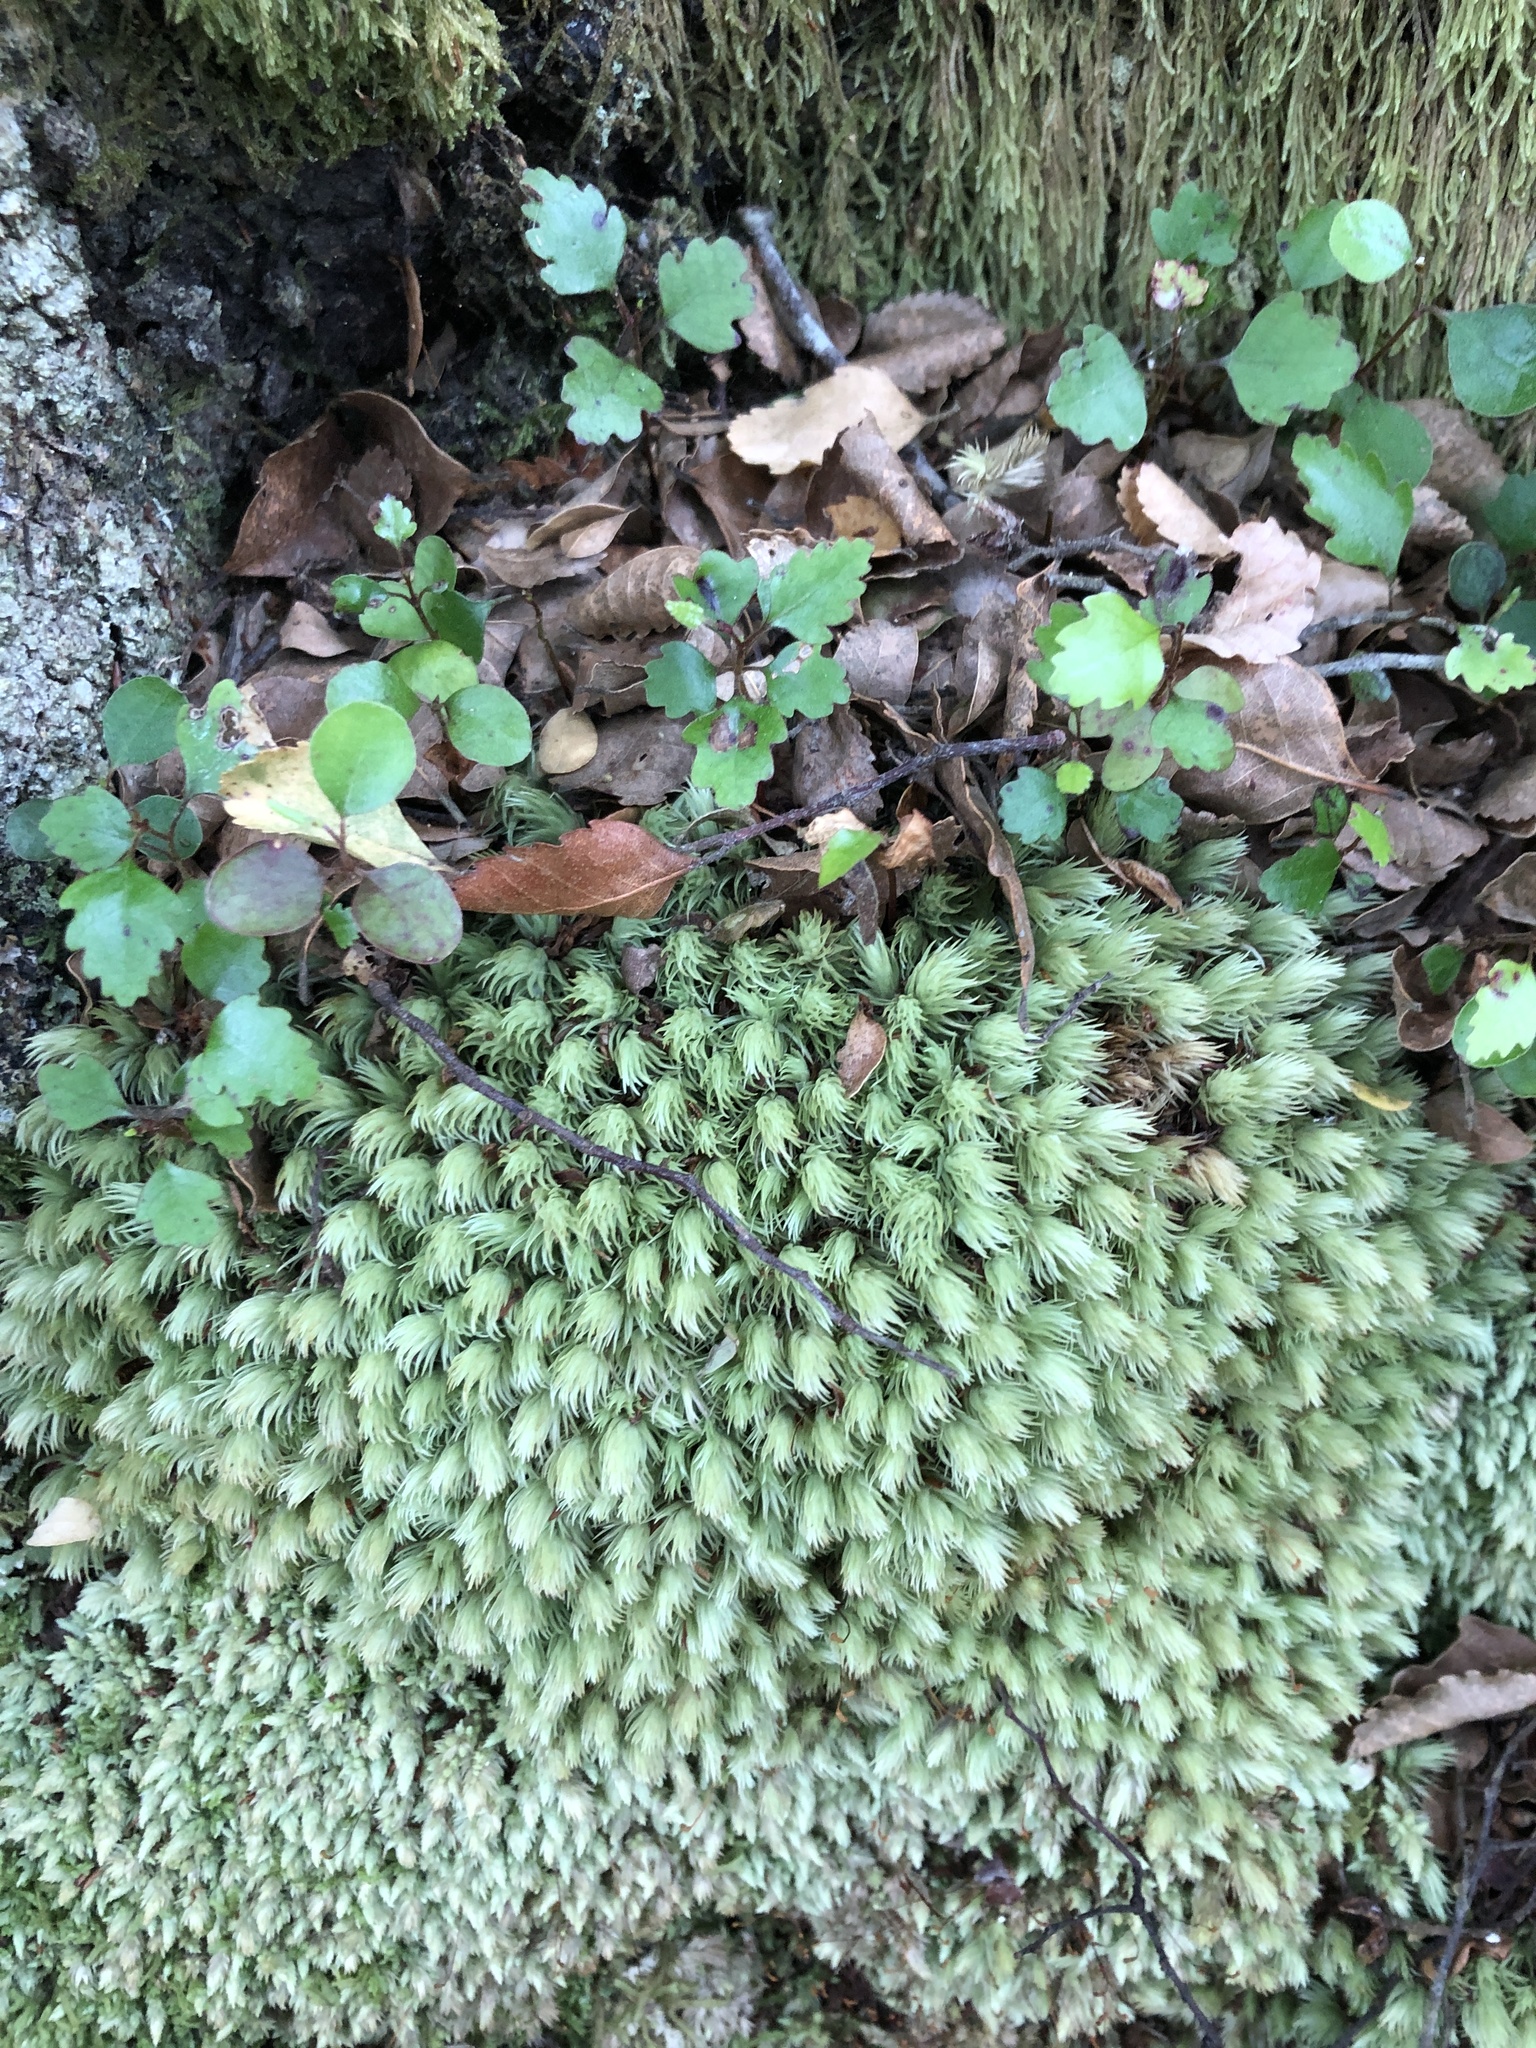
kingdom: Plantae
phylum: Bryophyta
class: Bryopsida
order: Dicranales
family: Leucobryaceae
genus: Leucobryum
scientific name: Leucobryum javense
